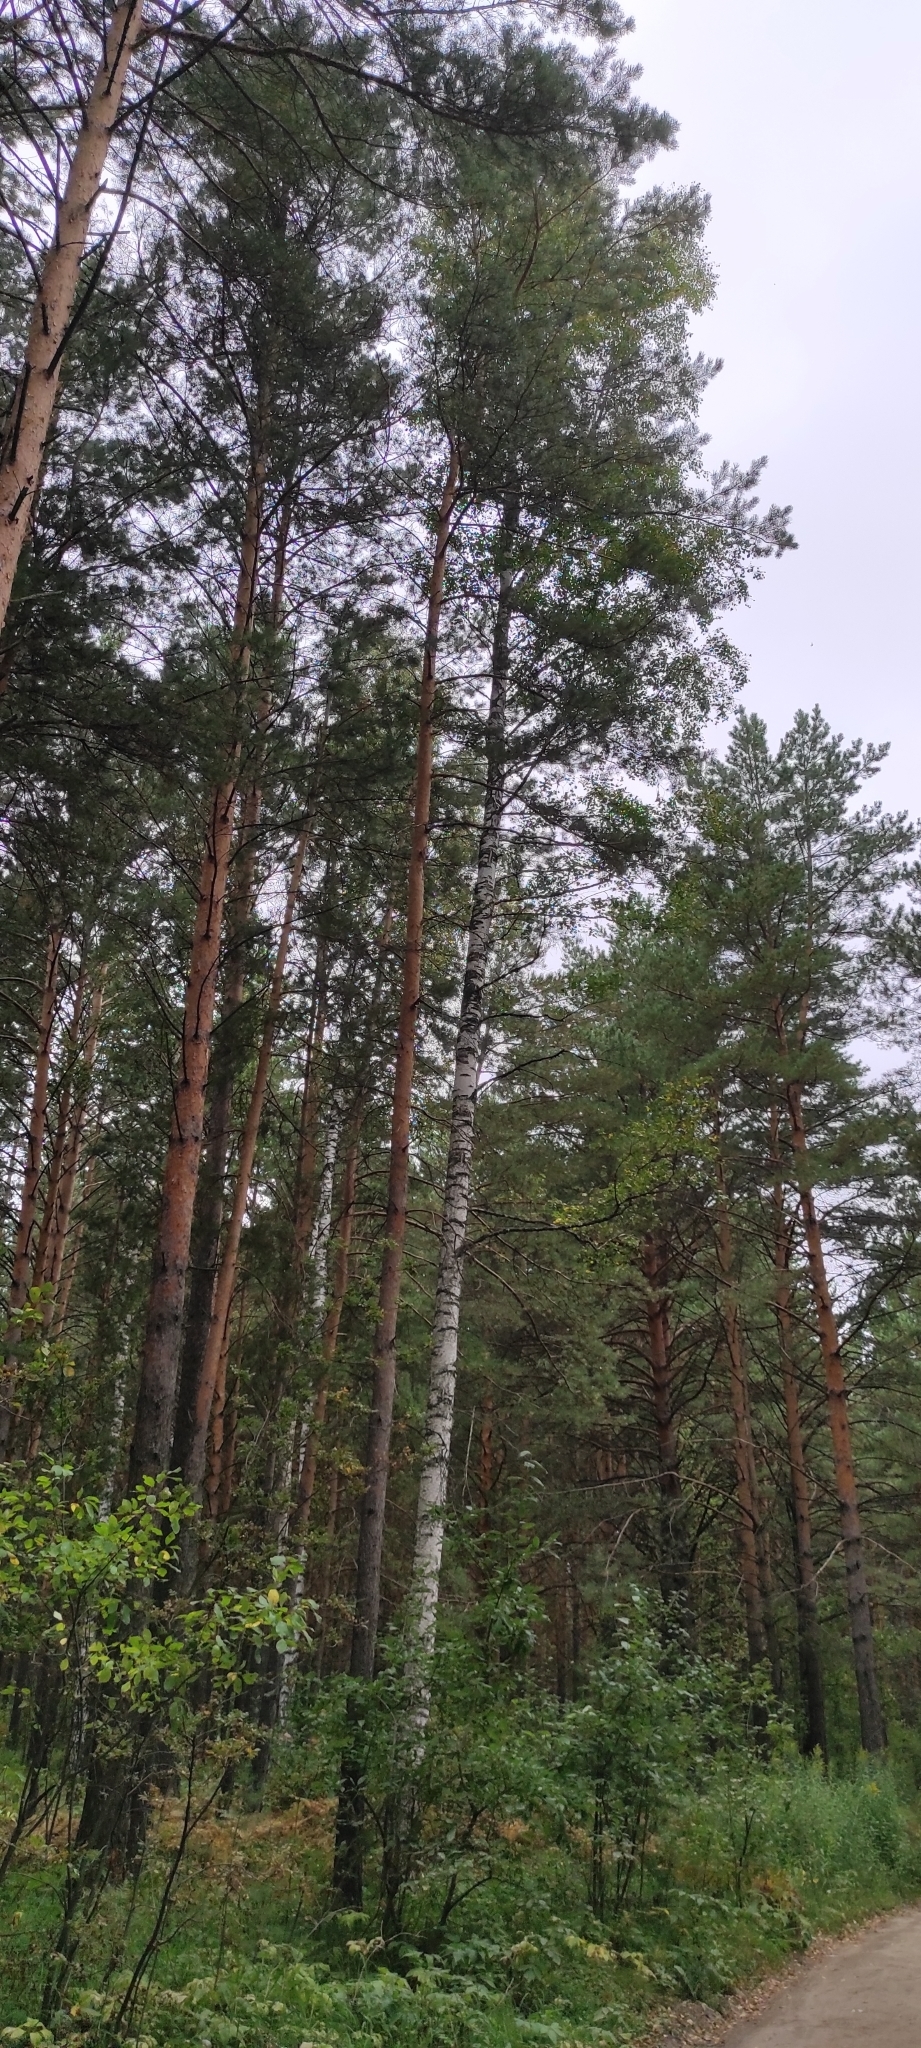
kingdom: Plantae
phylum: Tracheophyta
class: Magnoliopsida
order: Fagales
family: Betulaceae
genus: Betula
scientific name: Betula pendula
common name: Silver birch
